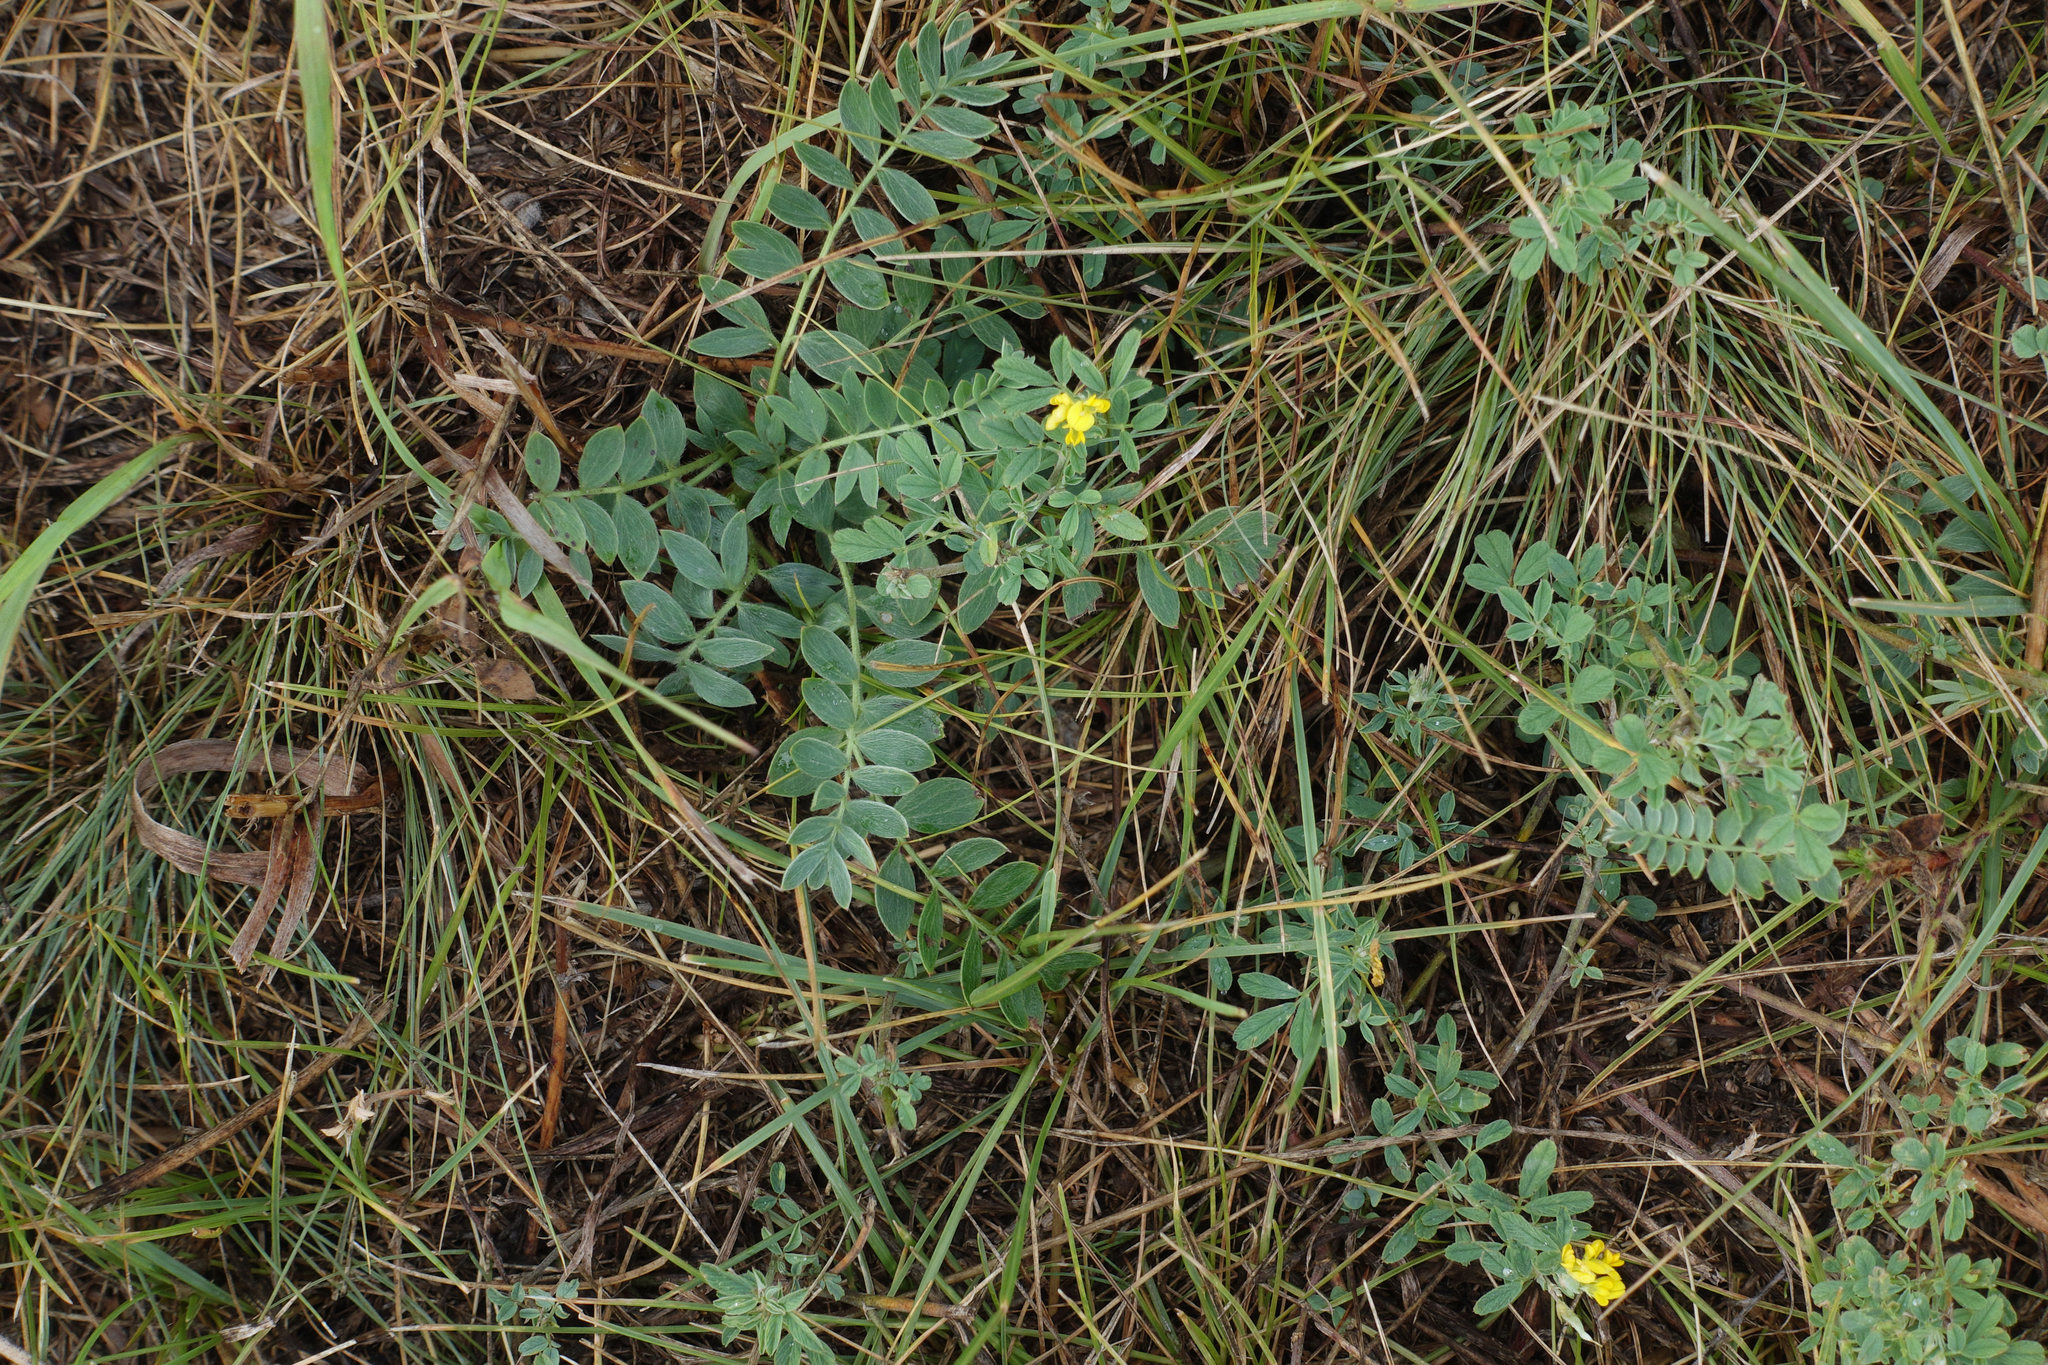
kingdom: Plantae
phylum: Tracheophyta
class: Magnoliopsida
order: Rosales
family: Rosaceae
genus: Sibbaldianthe
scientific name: Sibbaldianthe bifurca
